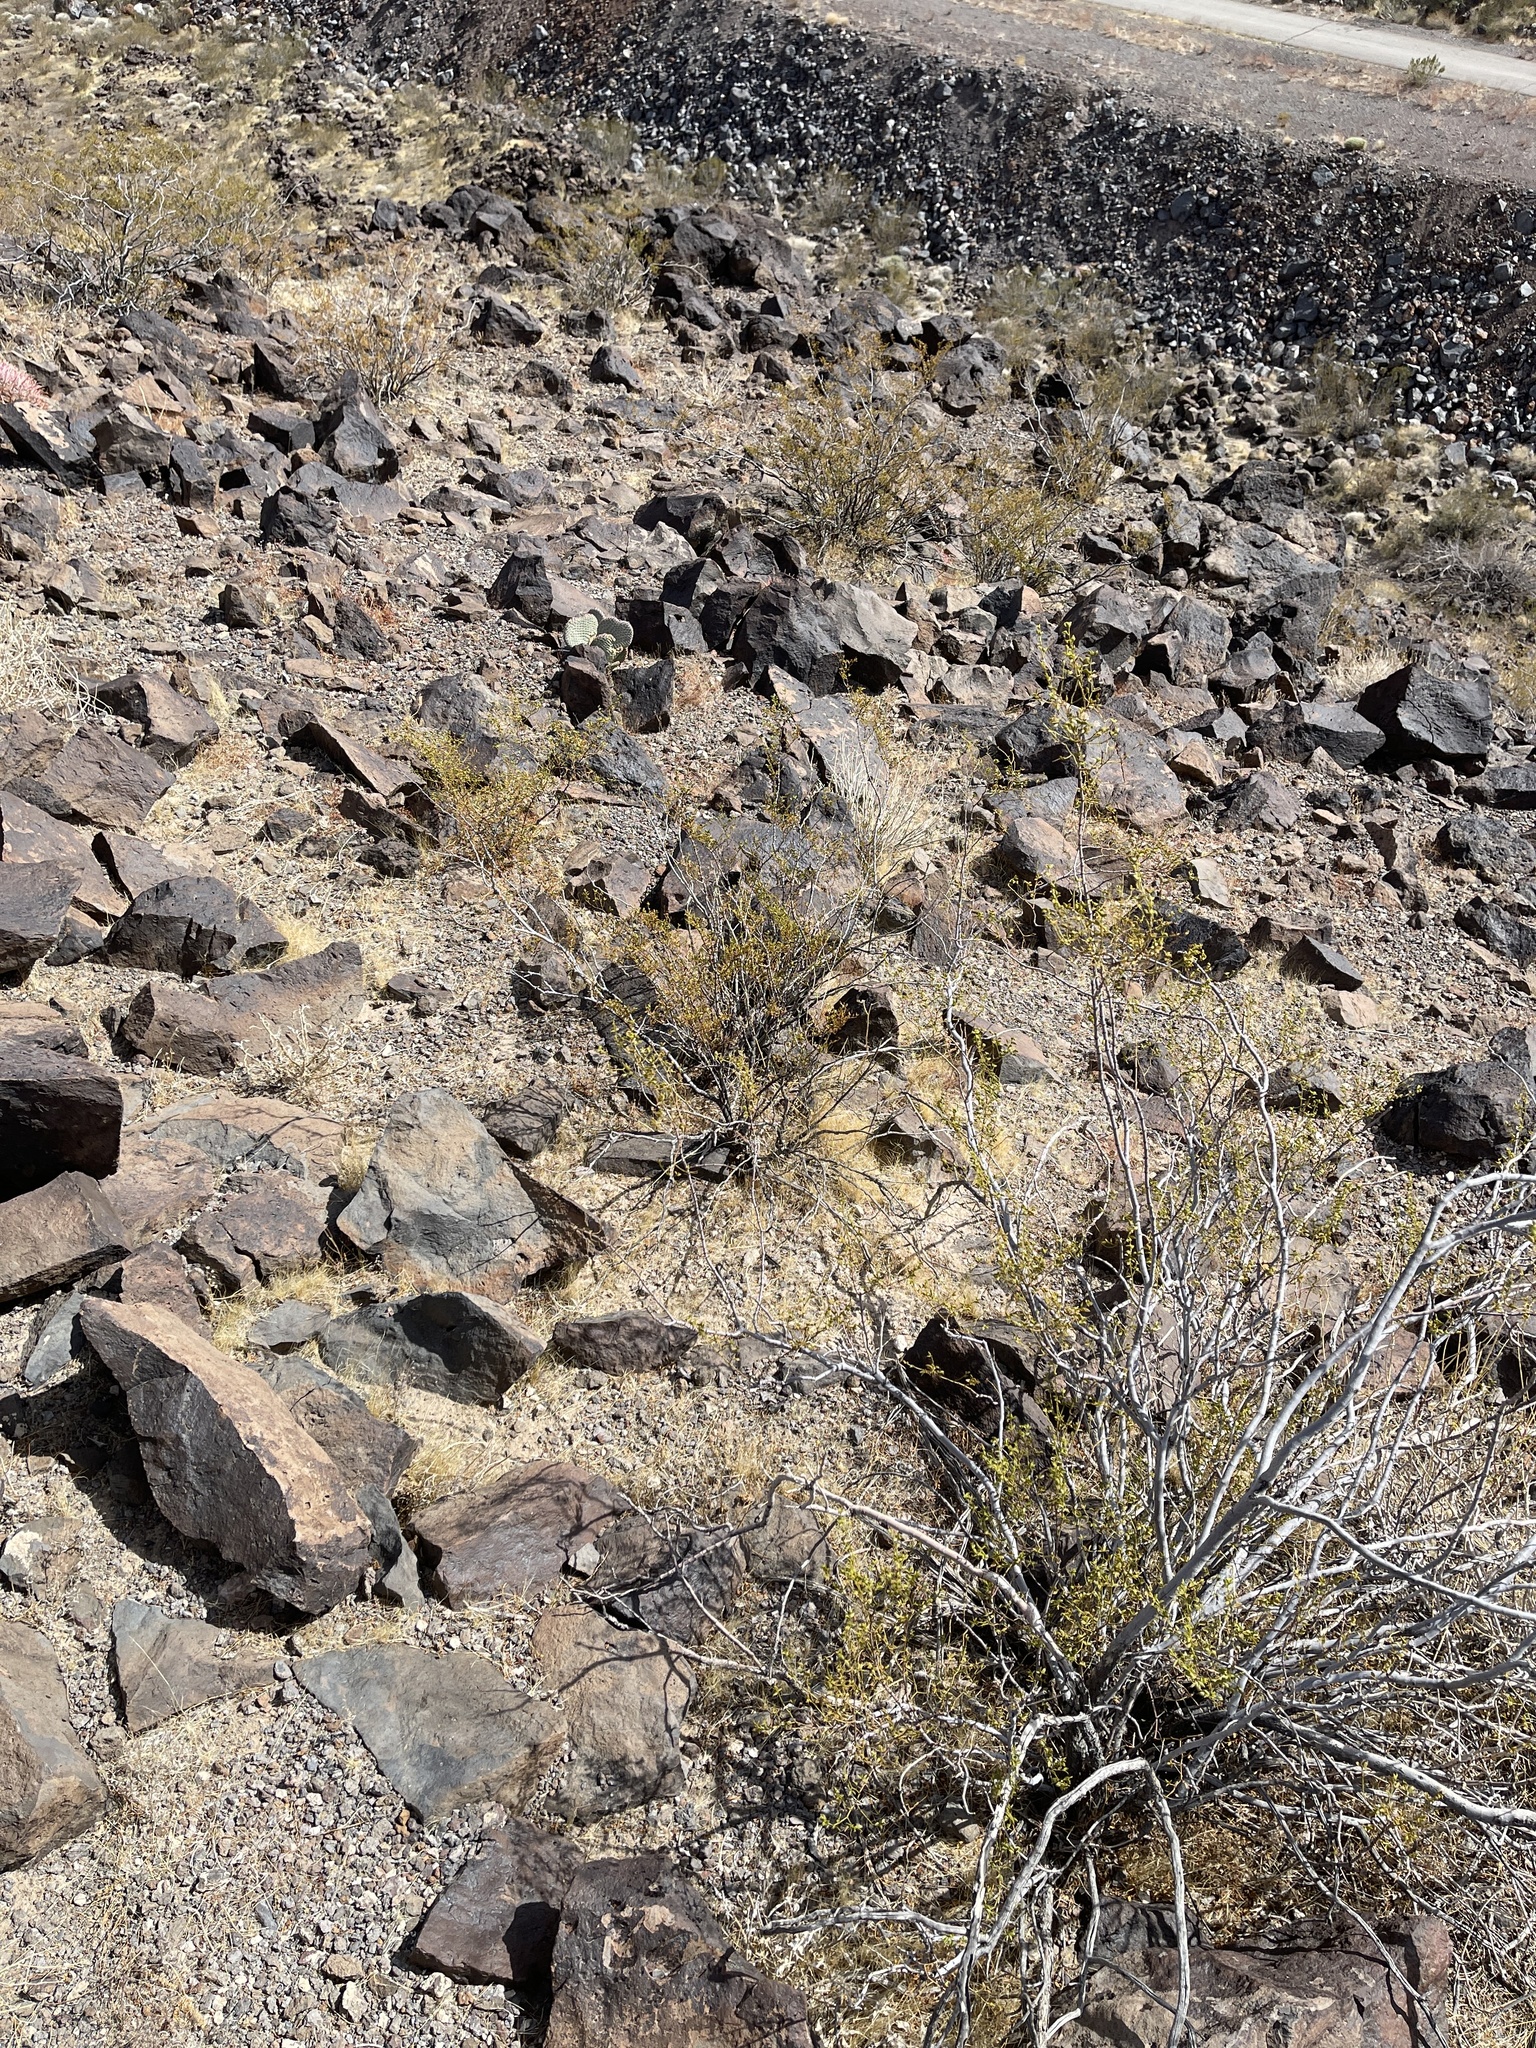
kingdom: Plantae
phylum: Tracheophyta
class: Magnoliopsida
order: Zygophyllales
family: Zygophyllaceae
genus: Larrea
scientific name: Larrea tridentata
